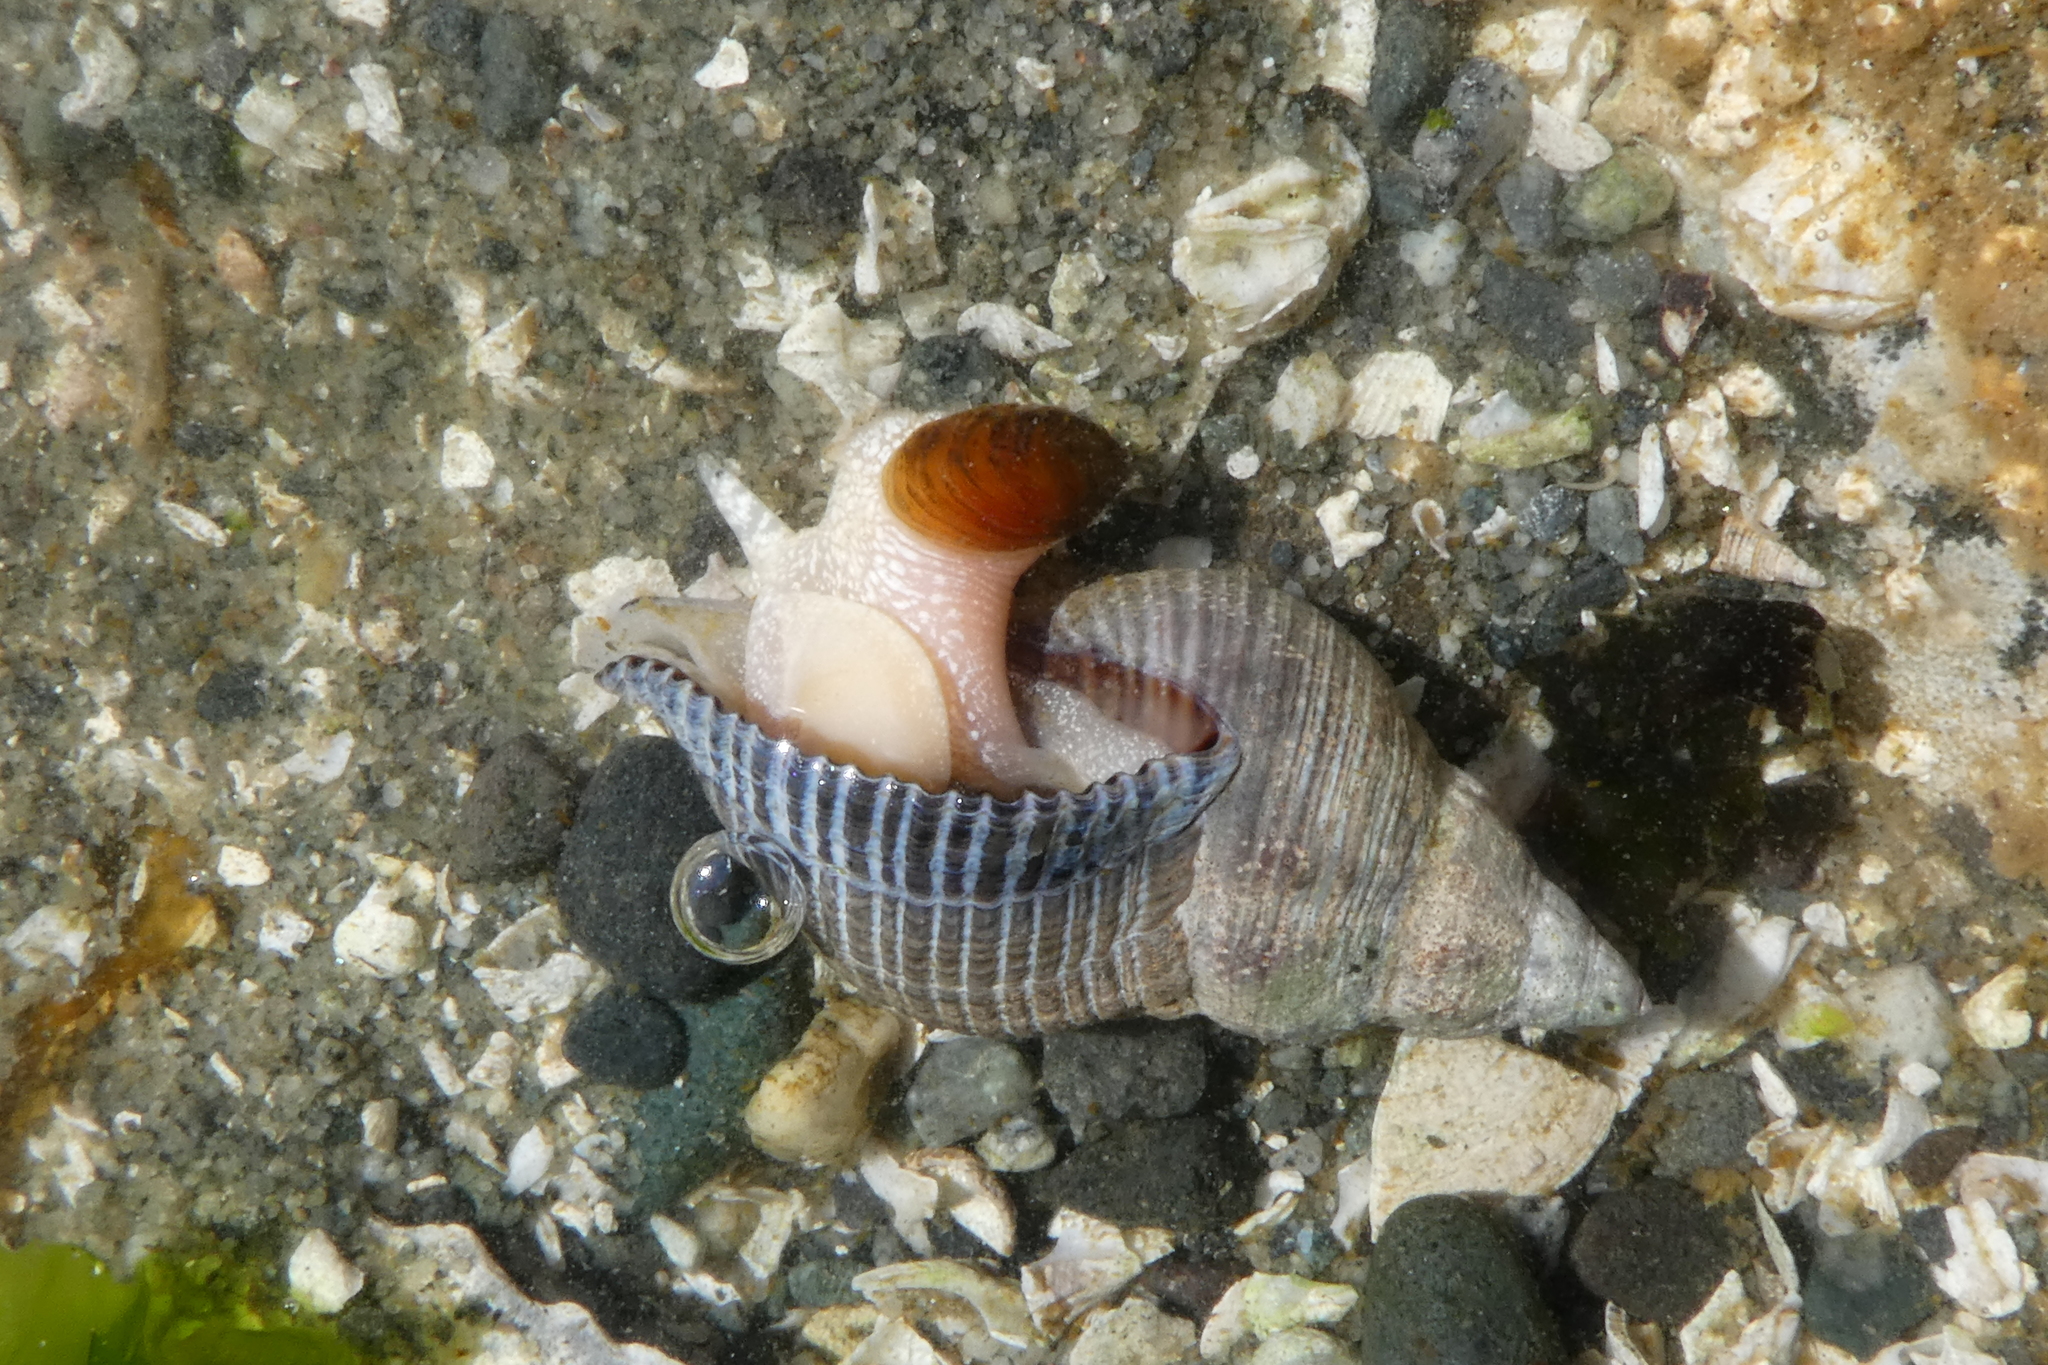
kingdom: Animalia
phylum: Mollusca
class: Gastropoda
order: Neogastropoda
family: Tudiclidae
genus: Lirabuccinum
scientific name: Lirabuccinum dirum
